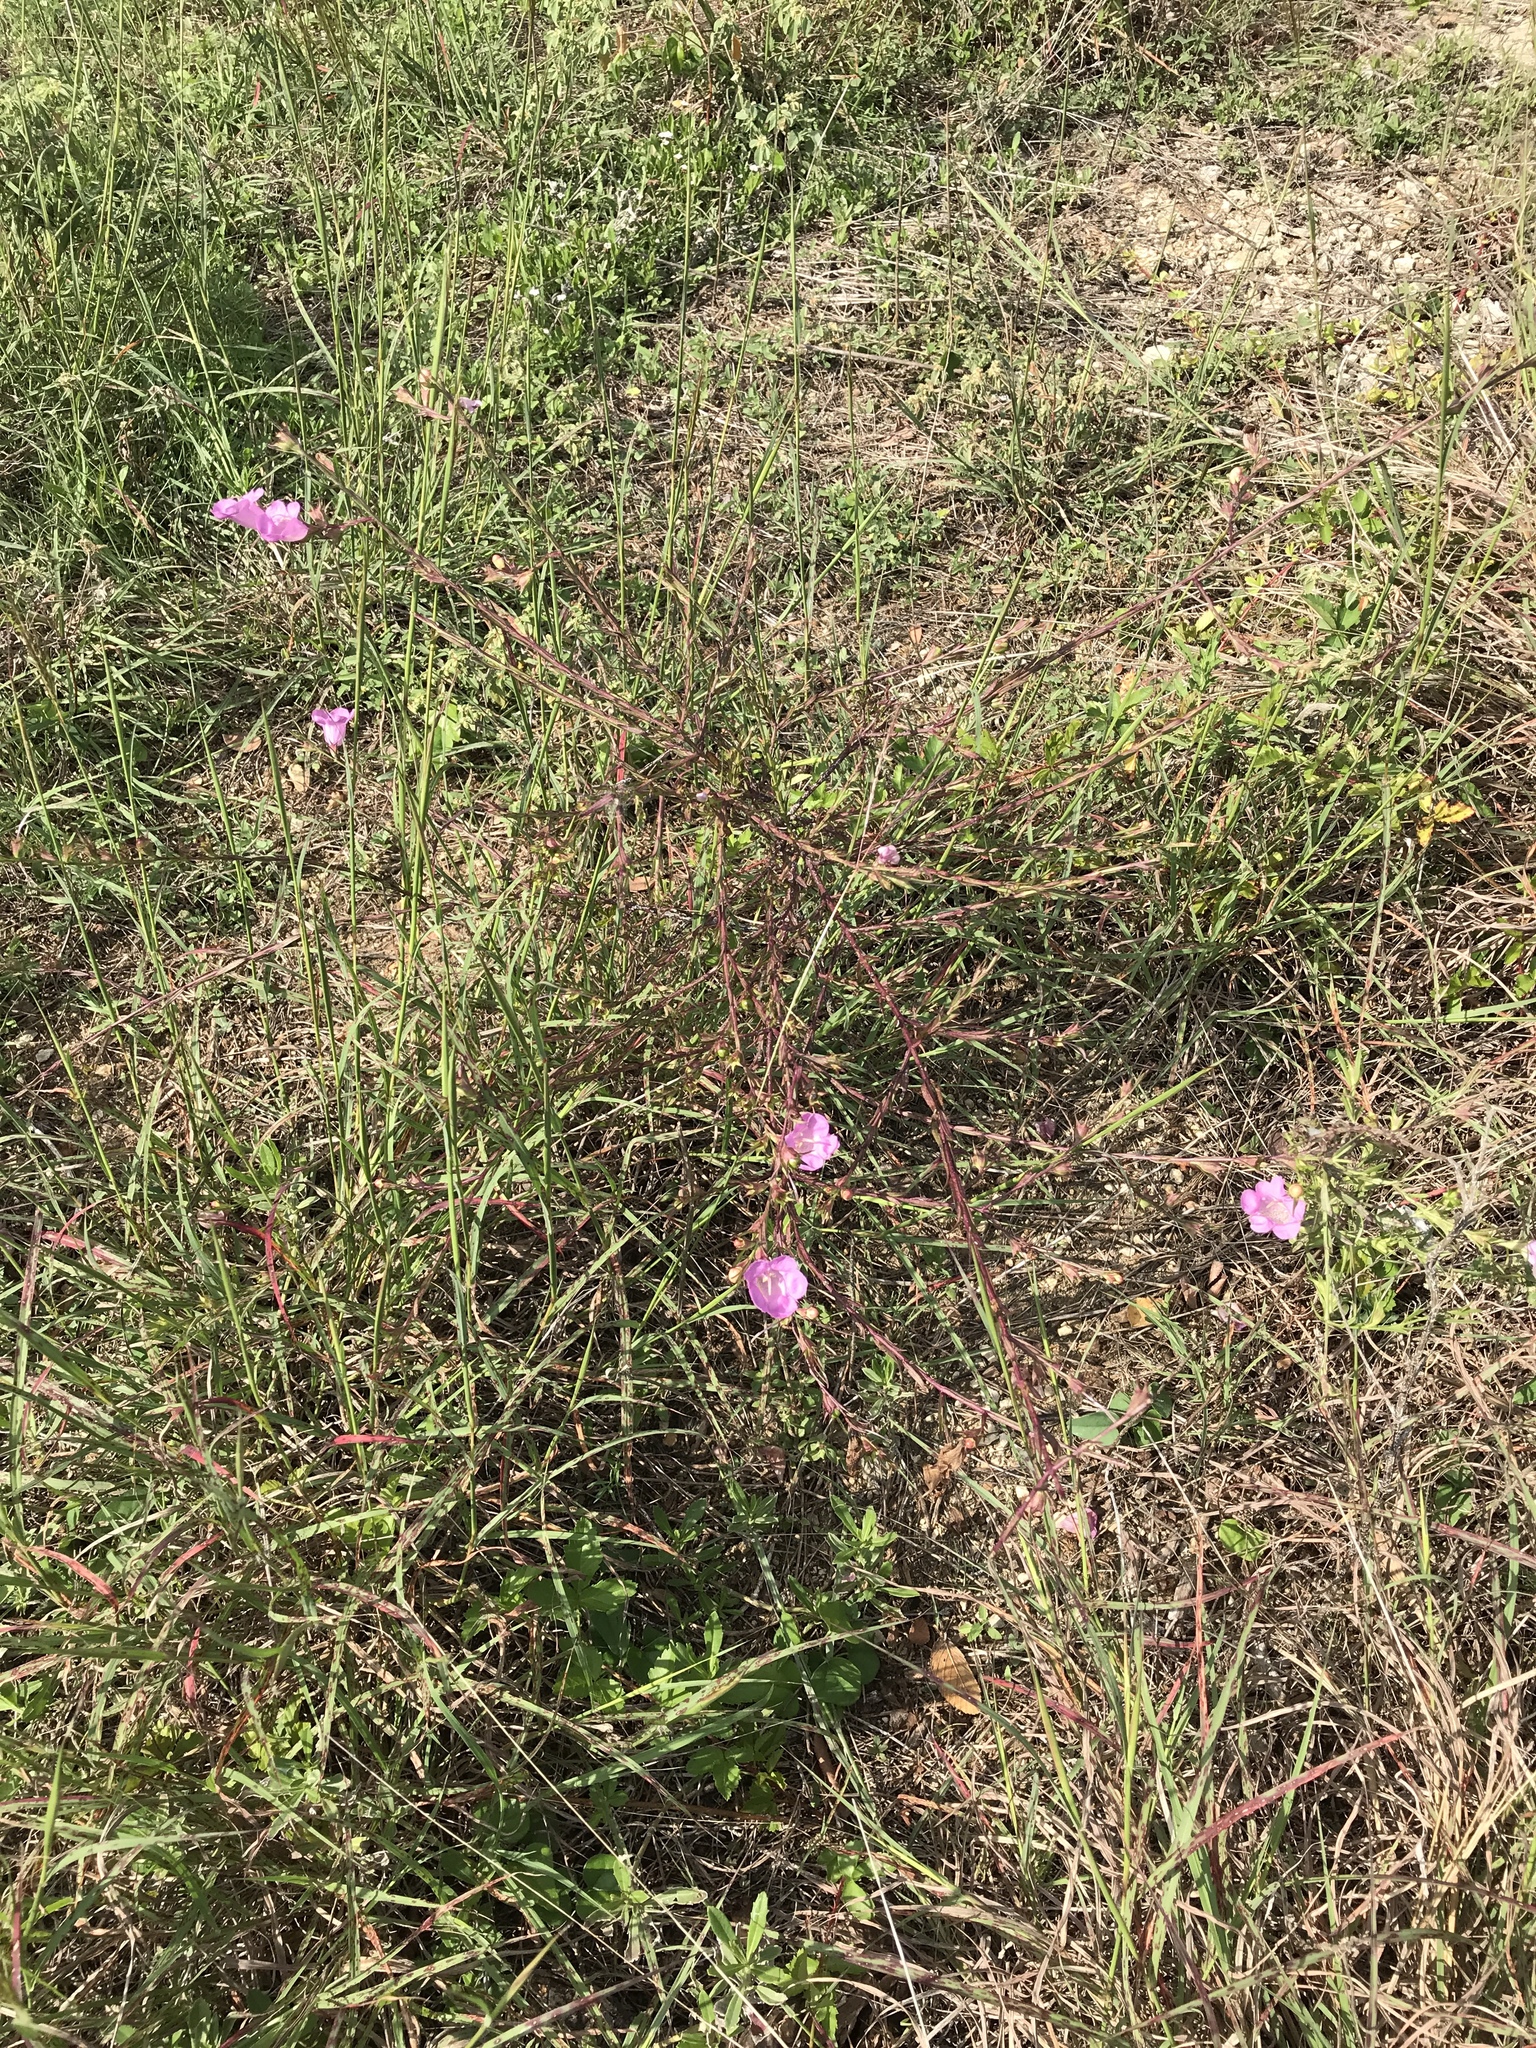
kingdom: Plantae
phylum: Tracheophyta
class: Magnoliopsida
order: Lamiales
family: Orobanchaceae
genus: Agalinis
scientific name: Agalinis heterophylla
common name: Prairie agalinis
